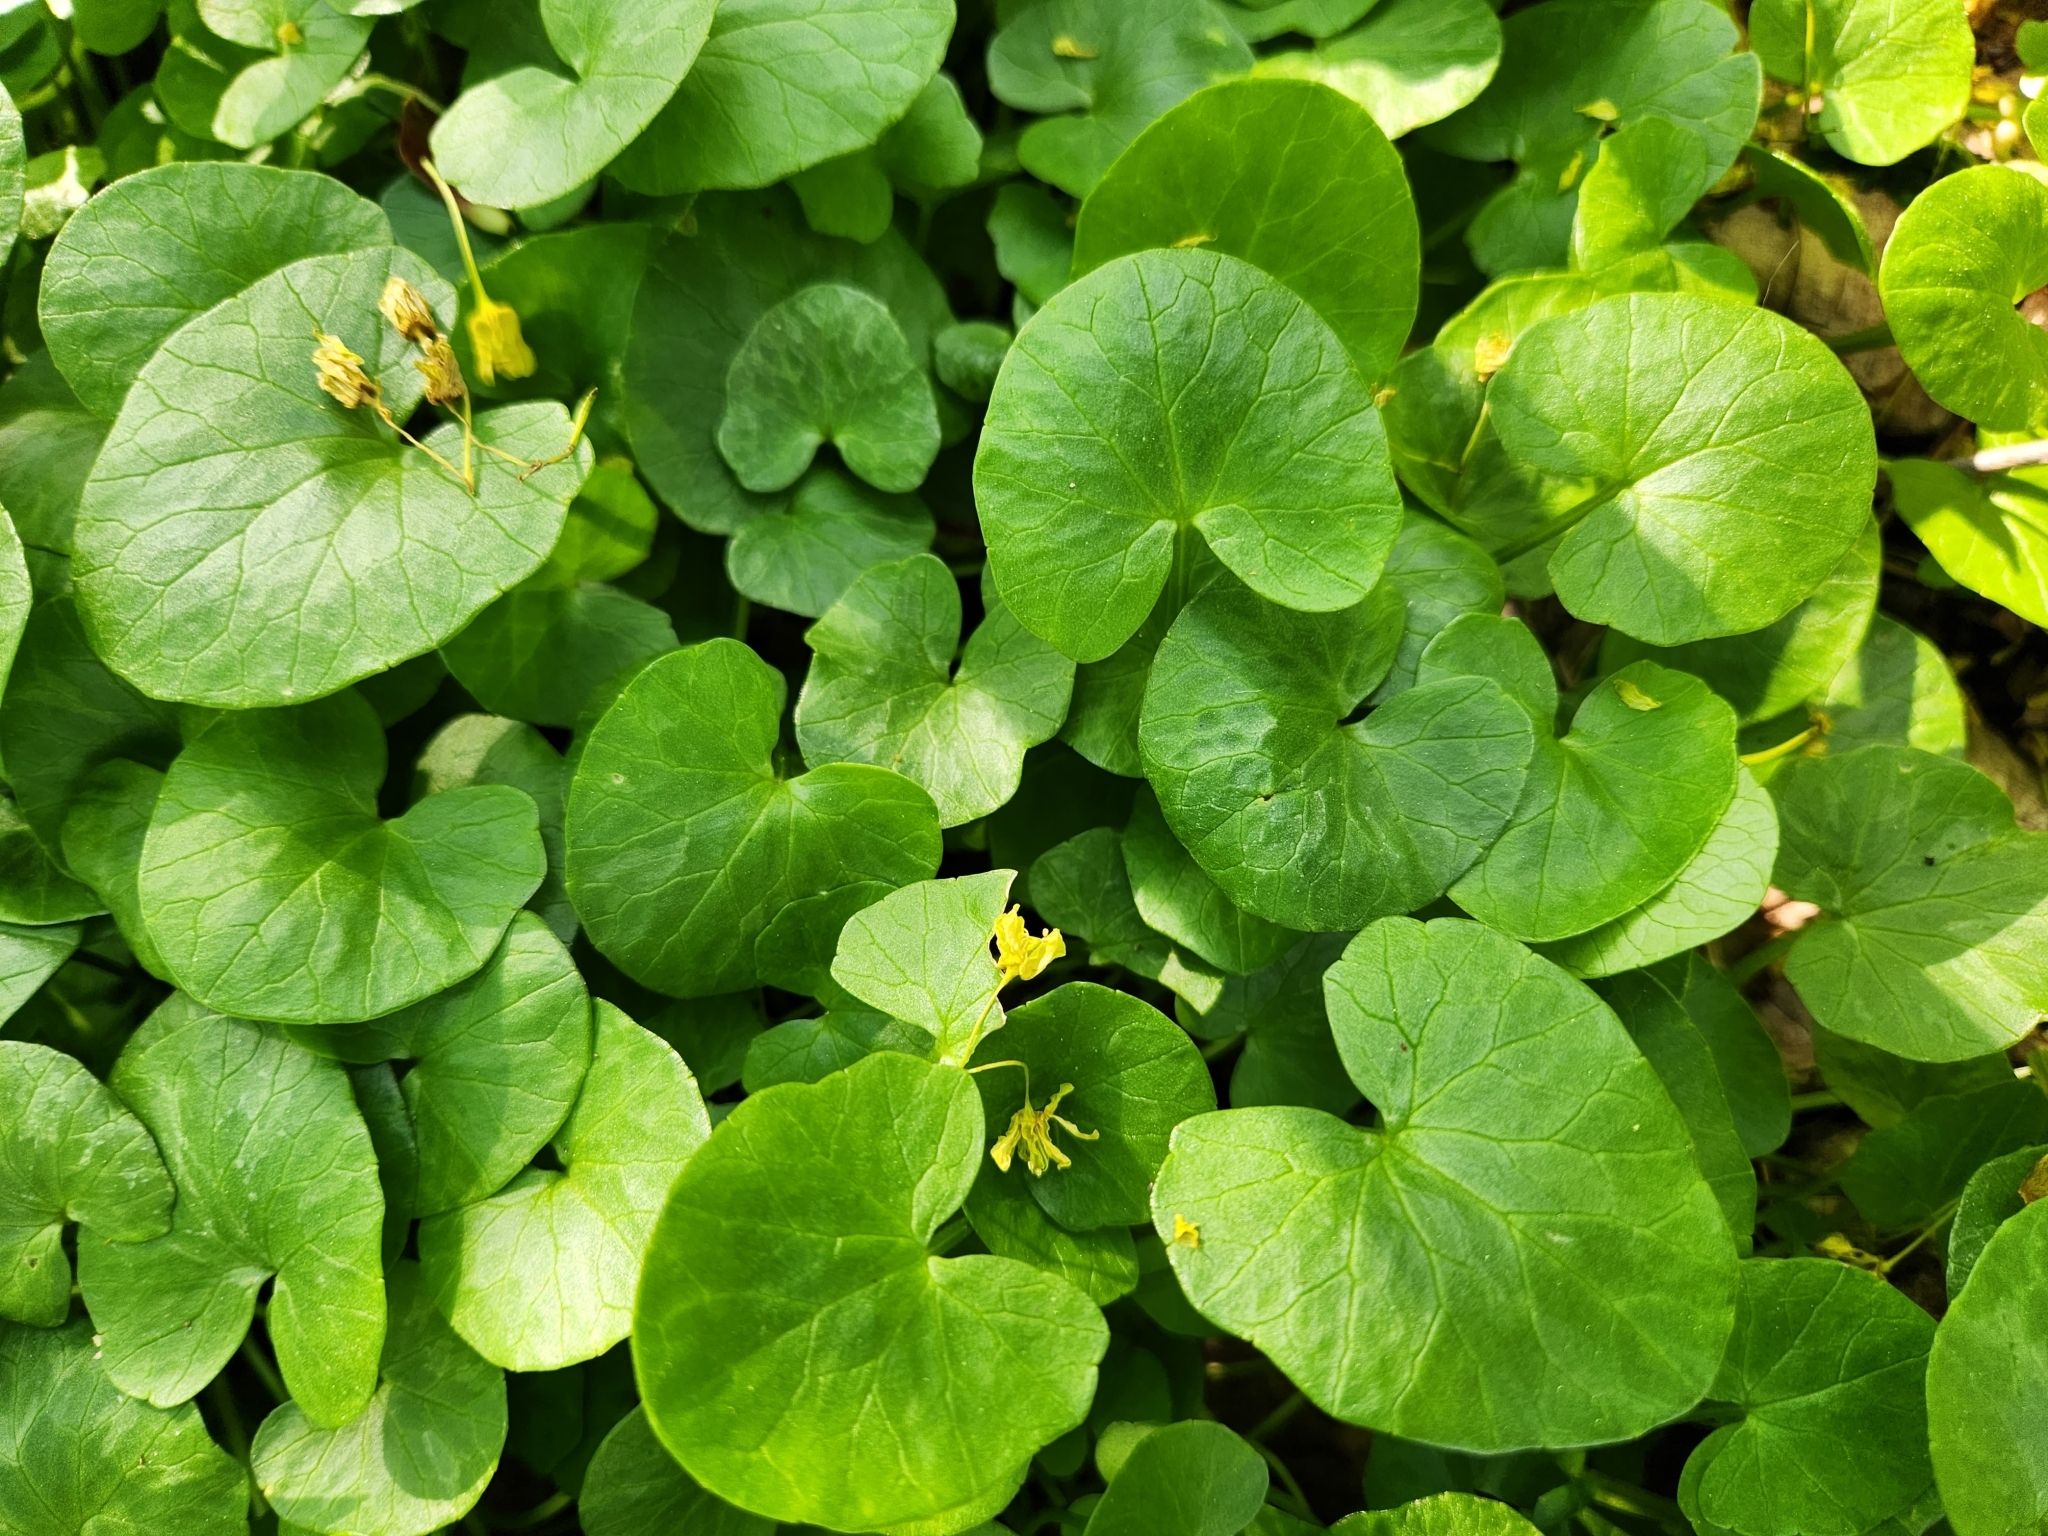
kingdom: Plantae
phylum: Tracheophyta
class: Magnoliopsida
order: Ranunculales
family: Ranunculaceae
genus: Ficaria
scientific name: Ficaria verna
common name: Lesser celandine
